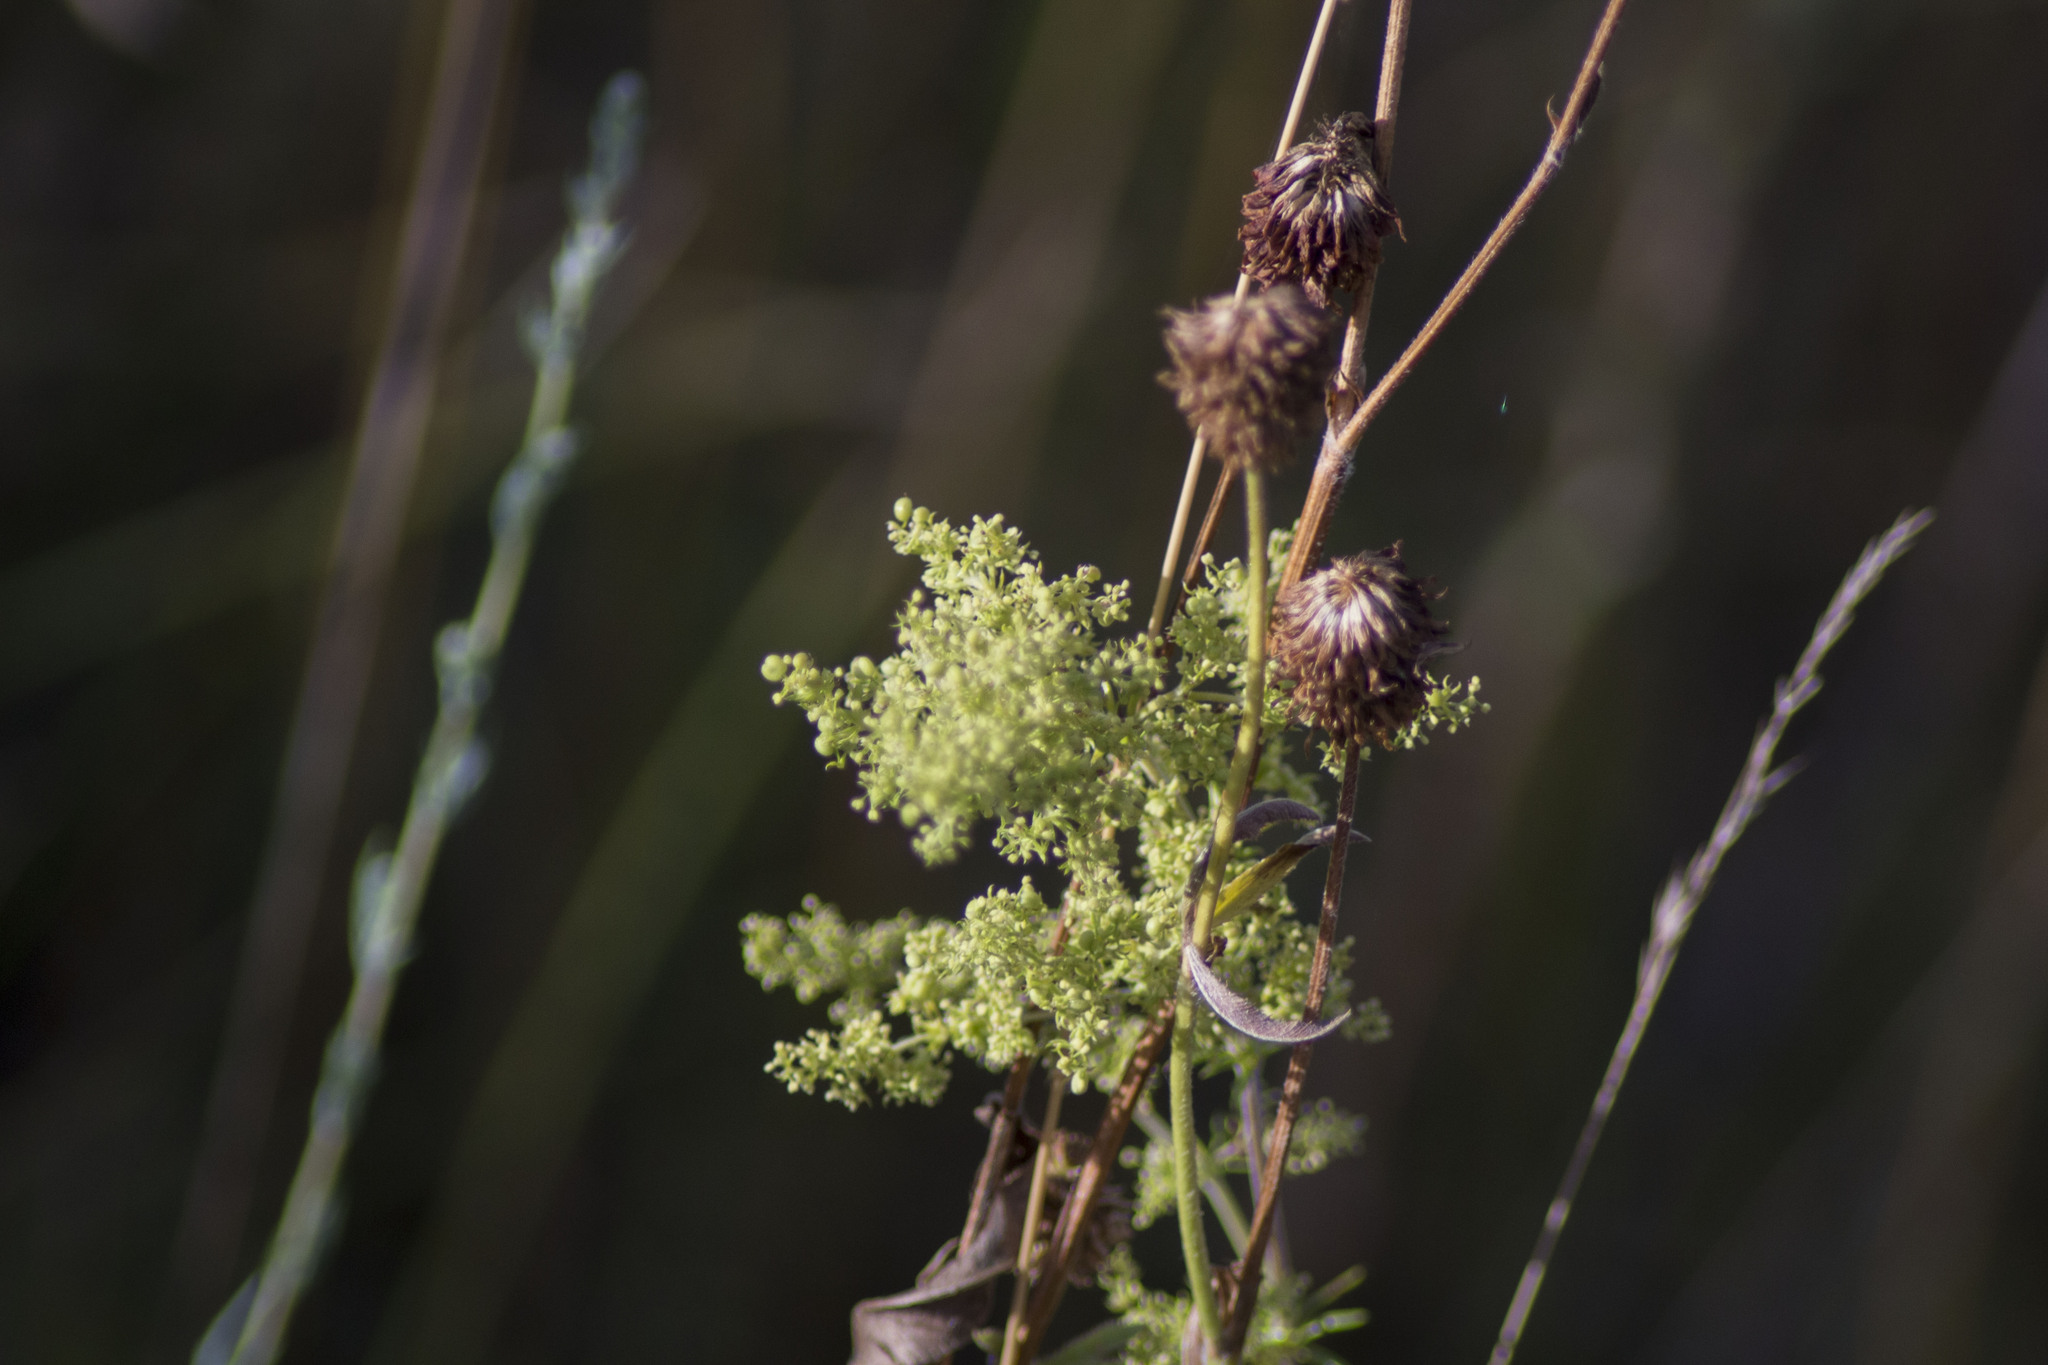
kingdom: Plantae
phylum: Tracheophyta
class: Magnoliopsida
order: Gentianales
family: Rubiaceae
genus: Galium
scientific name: Galium pomeranicum
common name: Bedstraw
